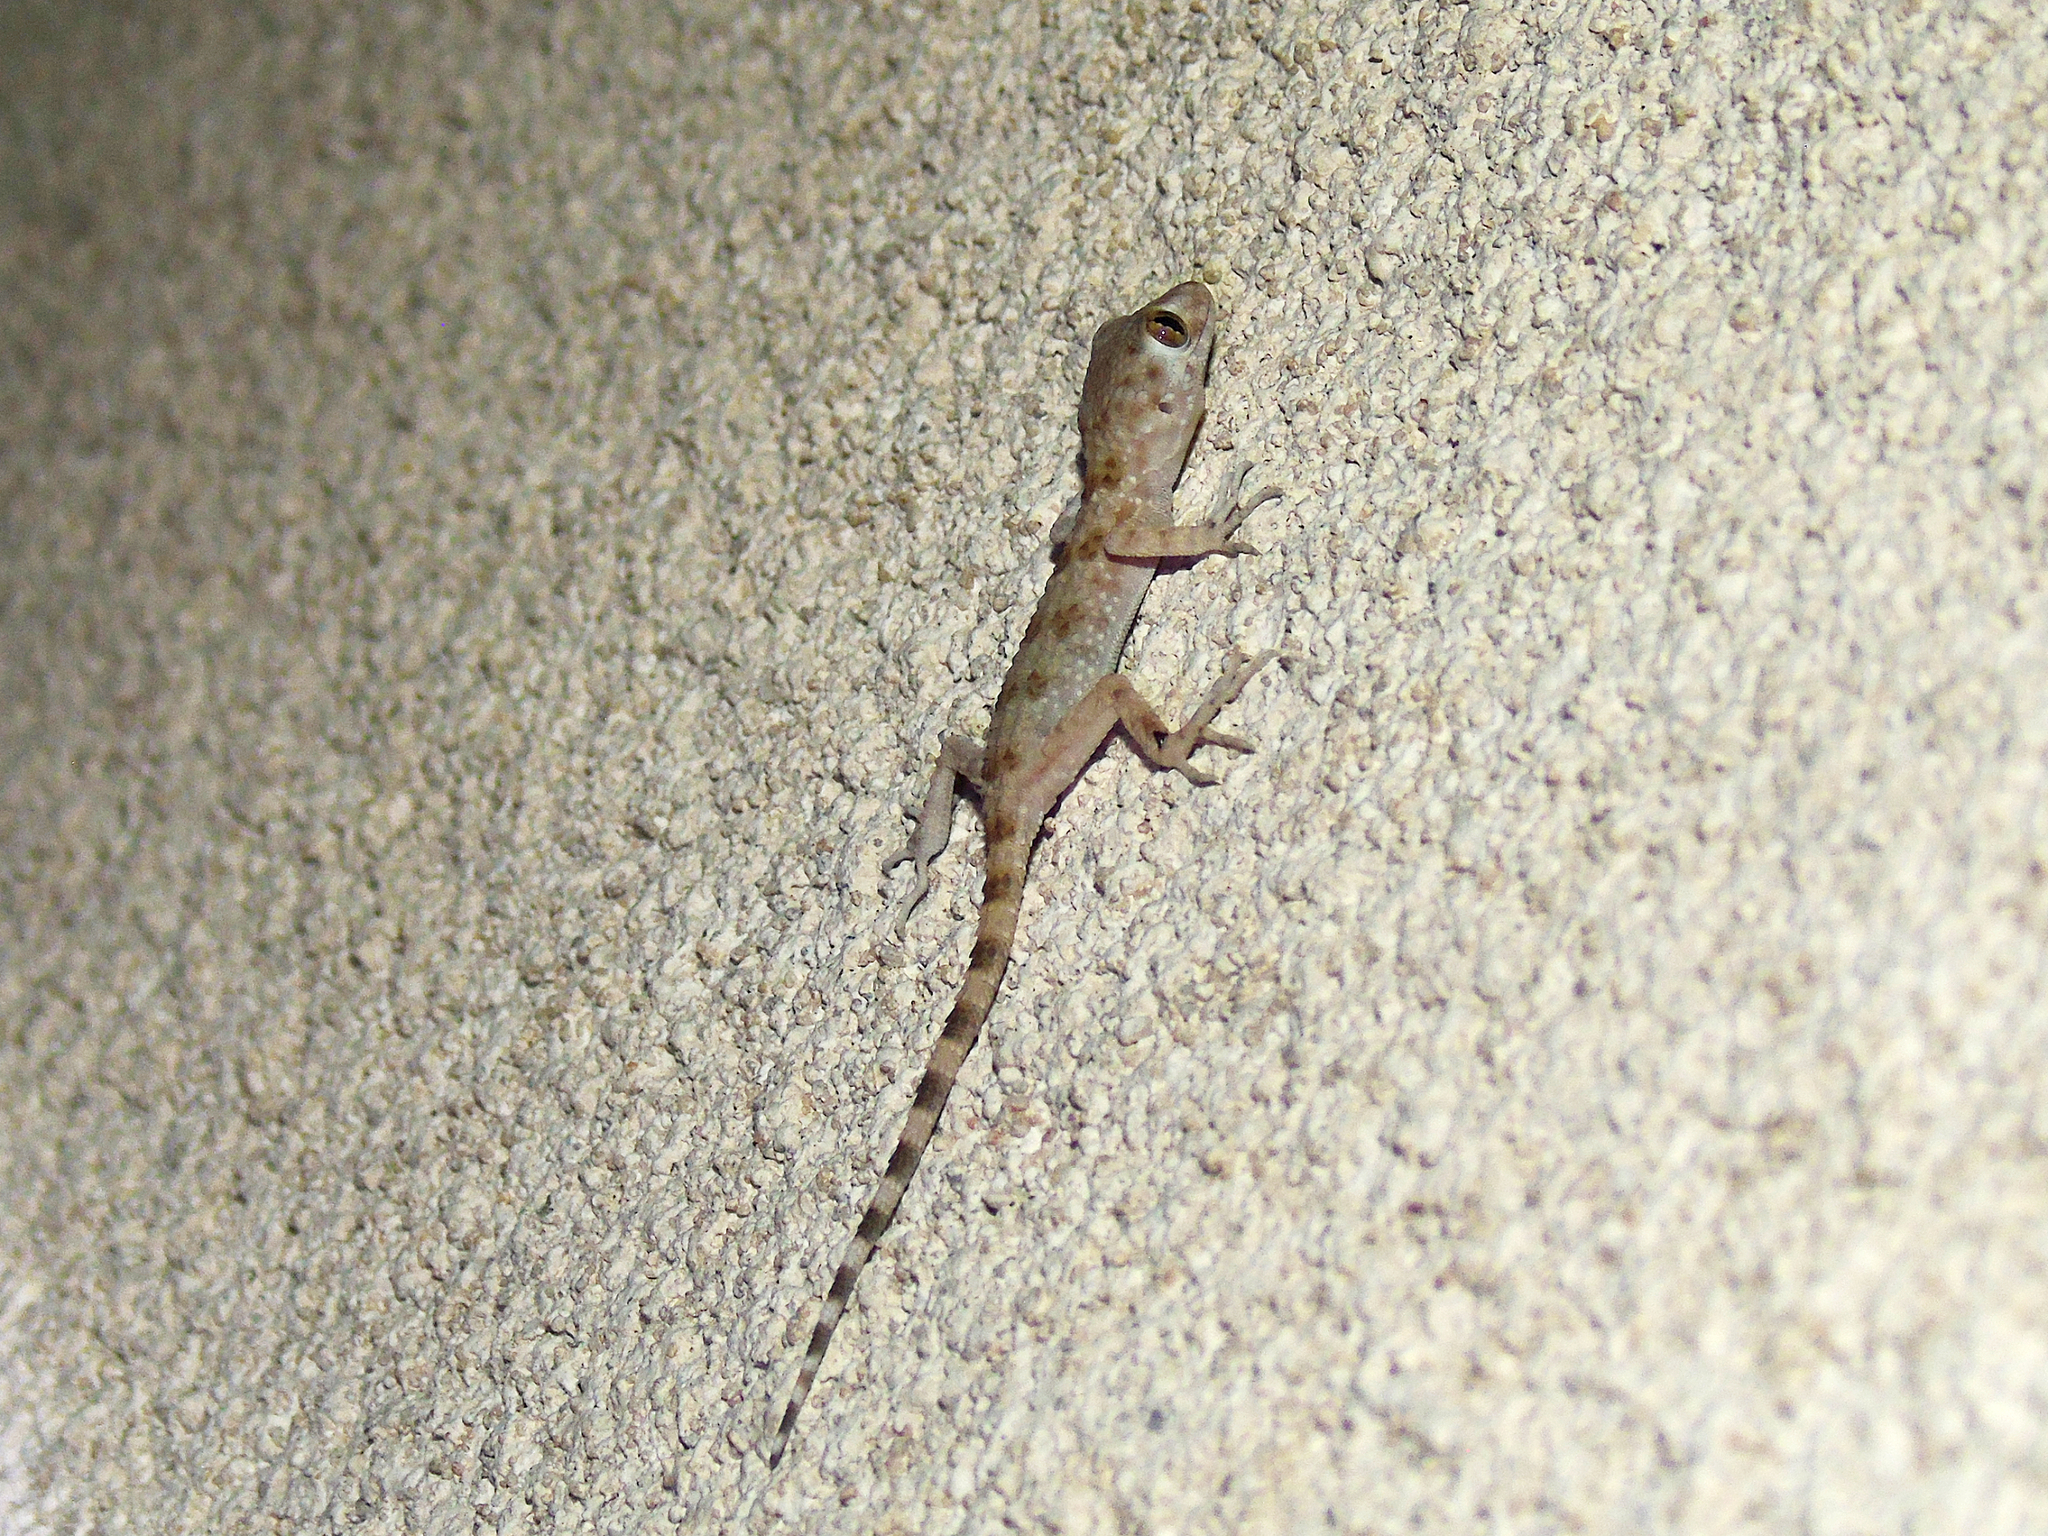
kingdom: Animalia
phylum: Chordata
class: Squamata
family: Gekkonidae
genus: Tenuidactylus
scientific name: Tenuidactylus caspius
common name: Caspian bent-toed gecko
